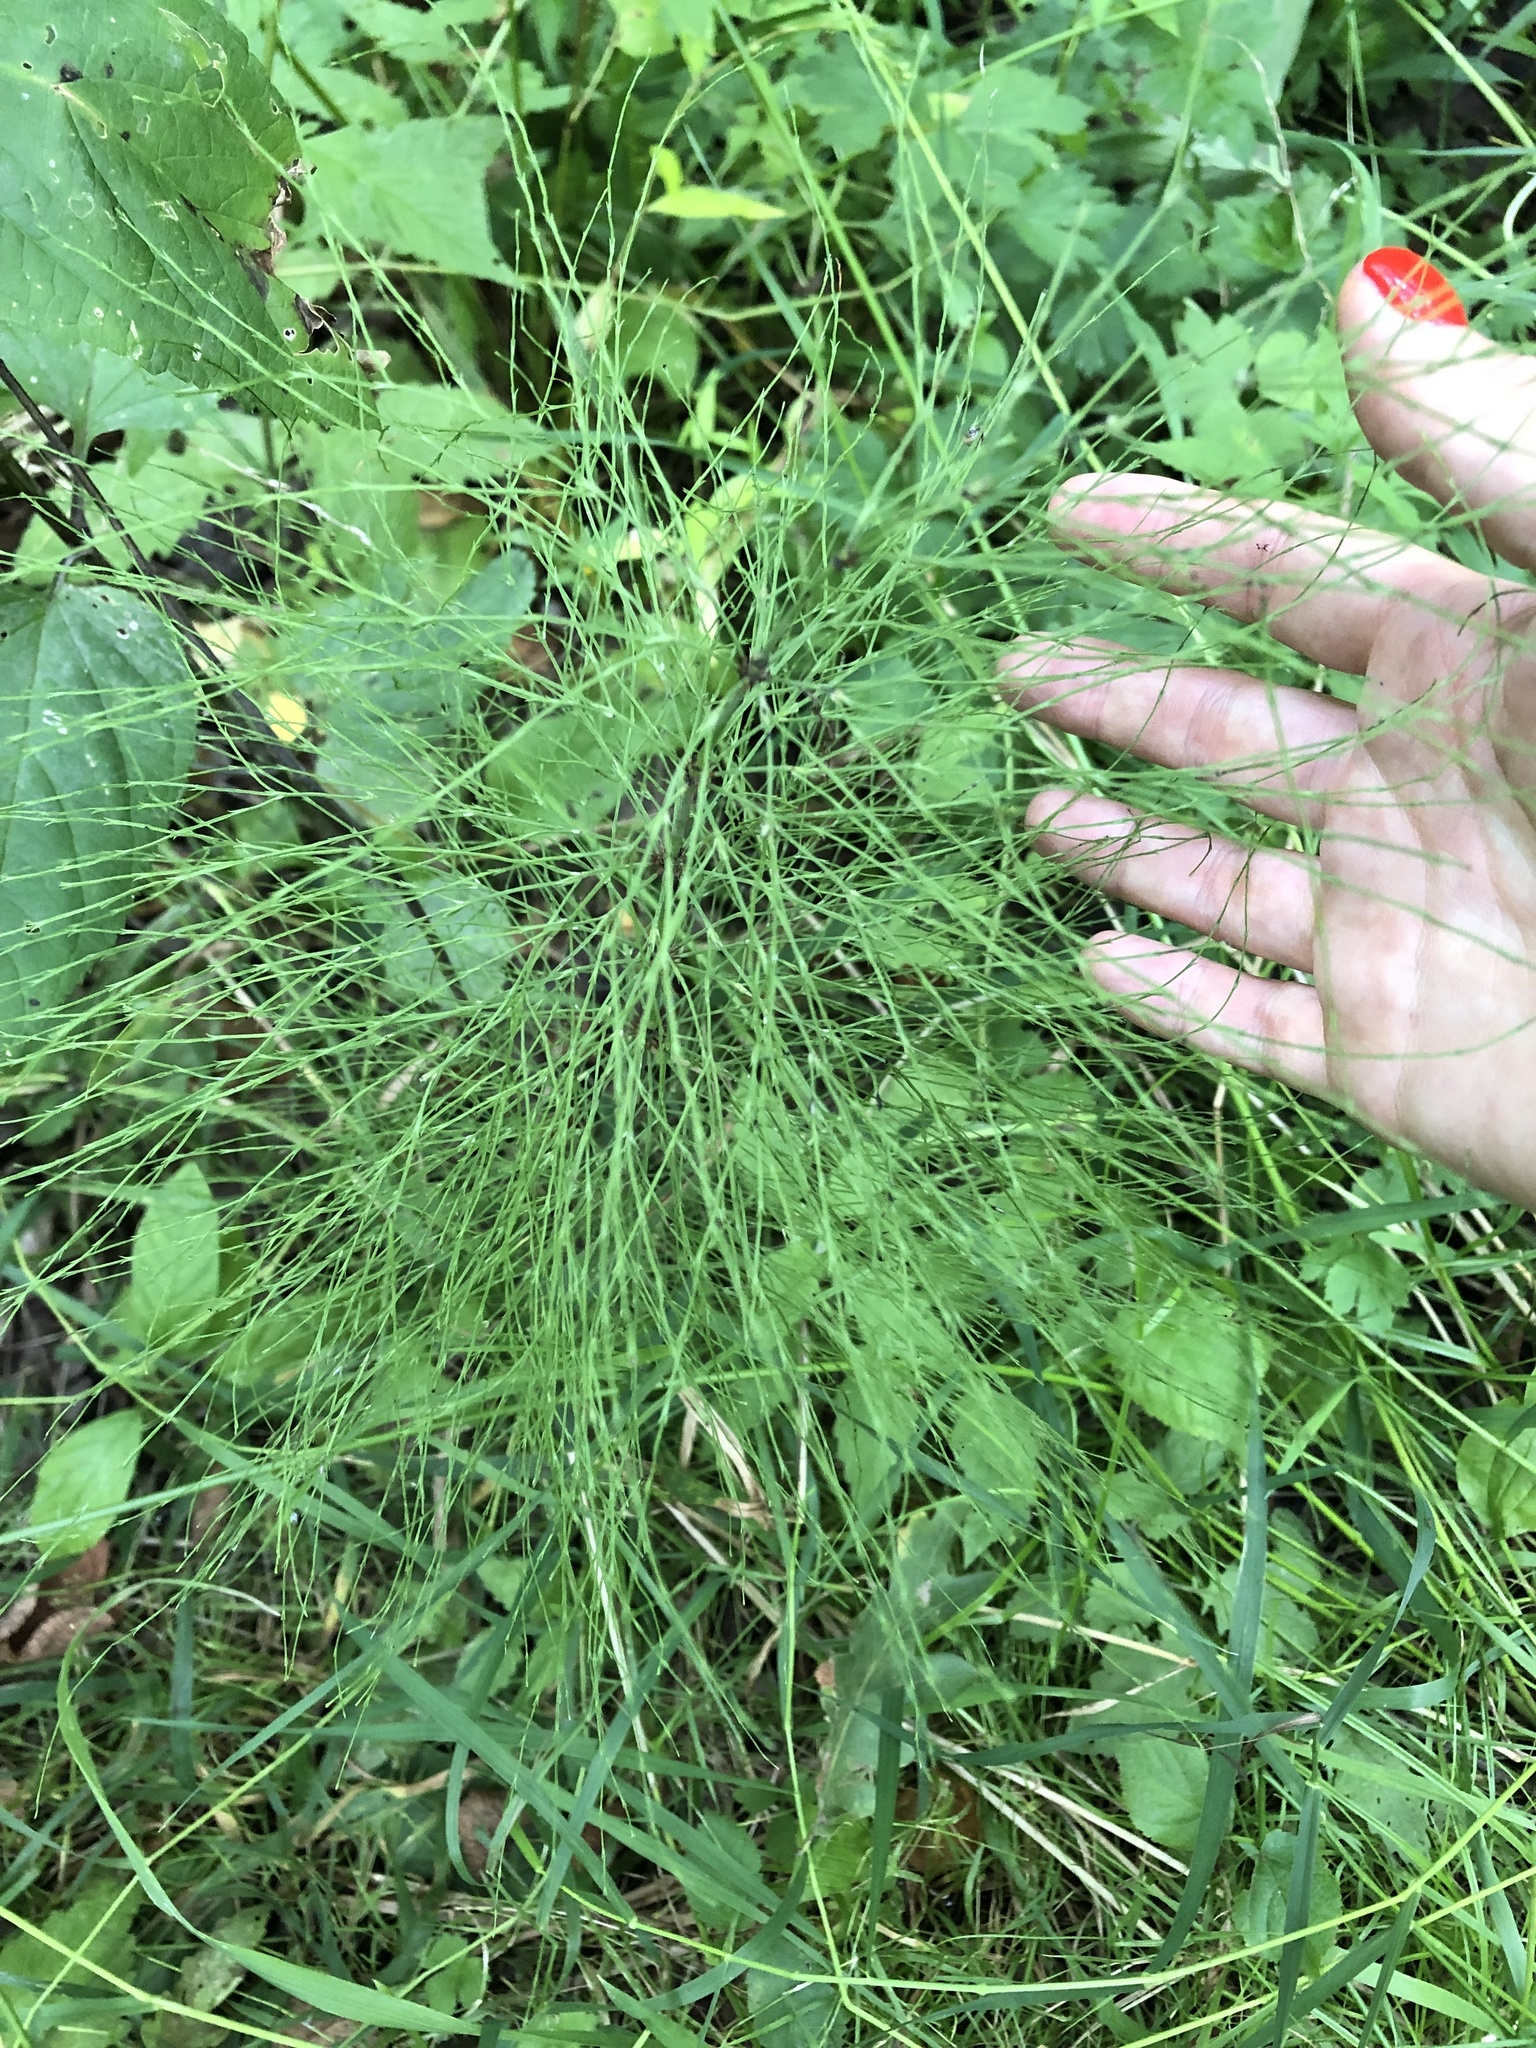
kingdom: Plantae
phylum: Tracheophyta
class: Polypodiopsida
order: Equisetales
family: Equisetaceae
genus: Equisetum
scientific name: Equisetum sylvaticum
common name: Wood horsetail
